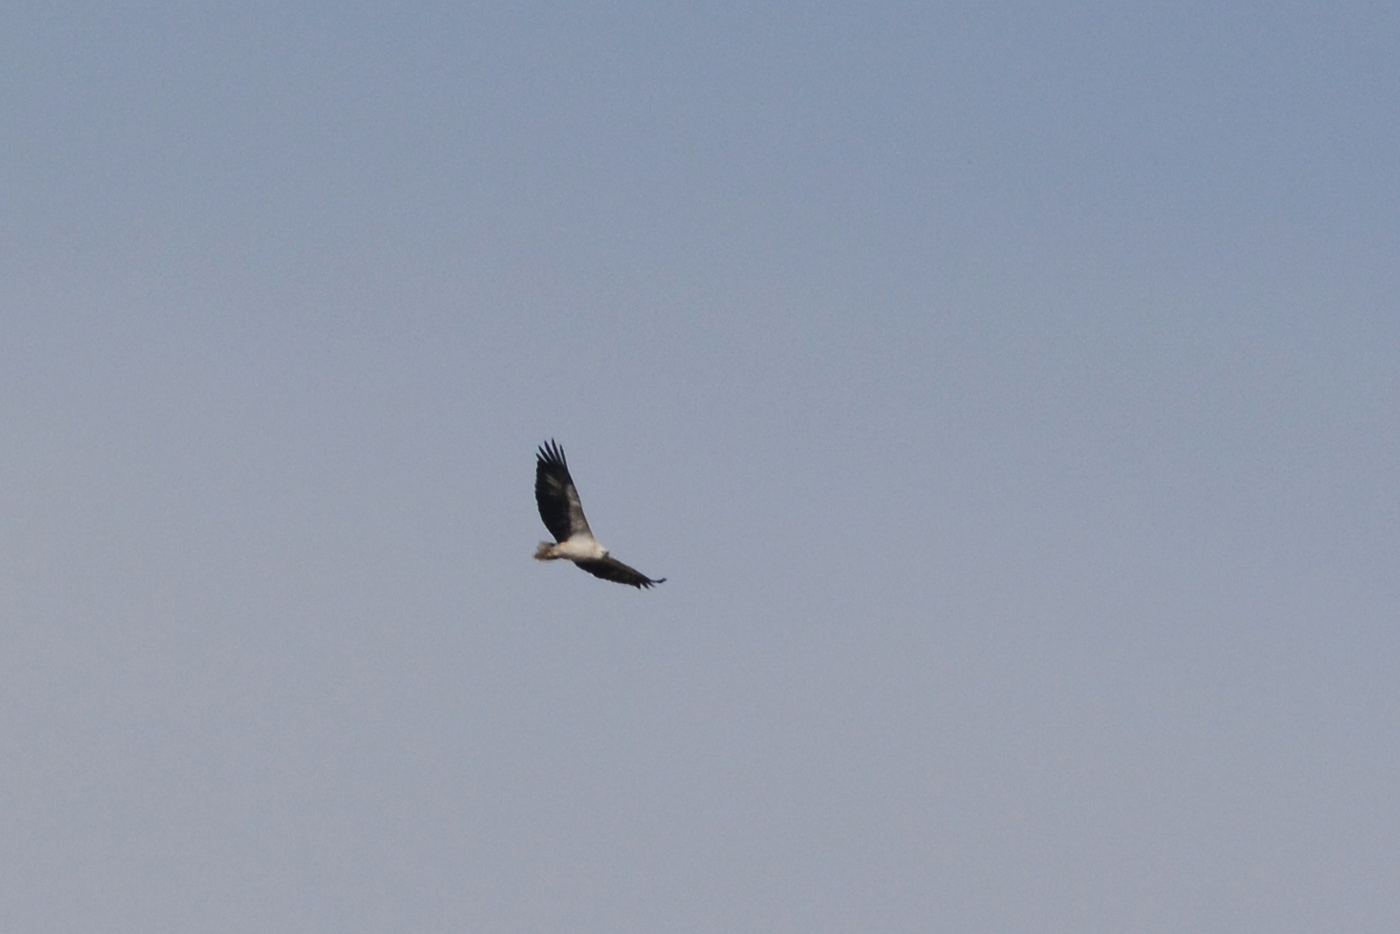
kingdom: Animalia
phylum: Chordata
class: Aves
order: Accipitriformes
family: Accipitridae
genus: Haliaeetus
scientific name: Haliaeetus leucogaster
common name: White-bellied sea eagle
